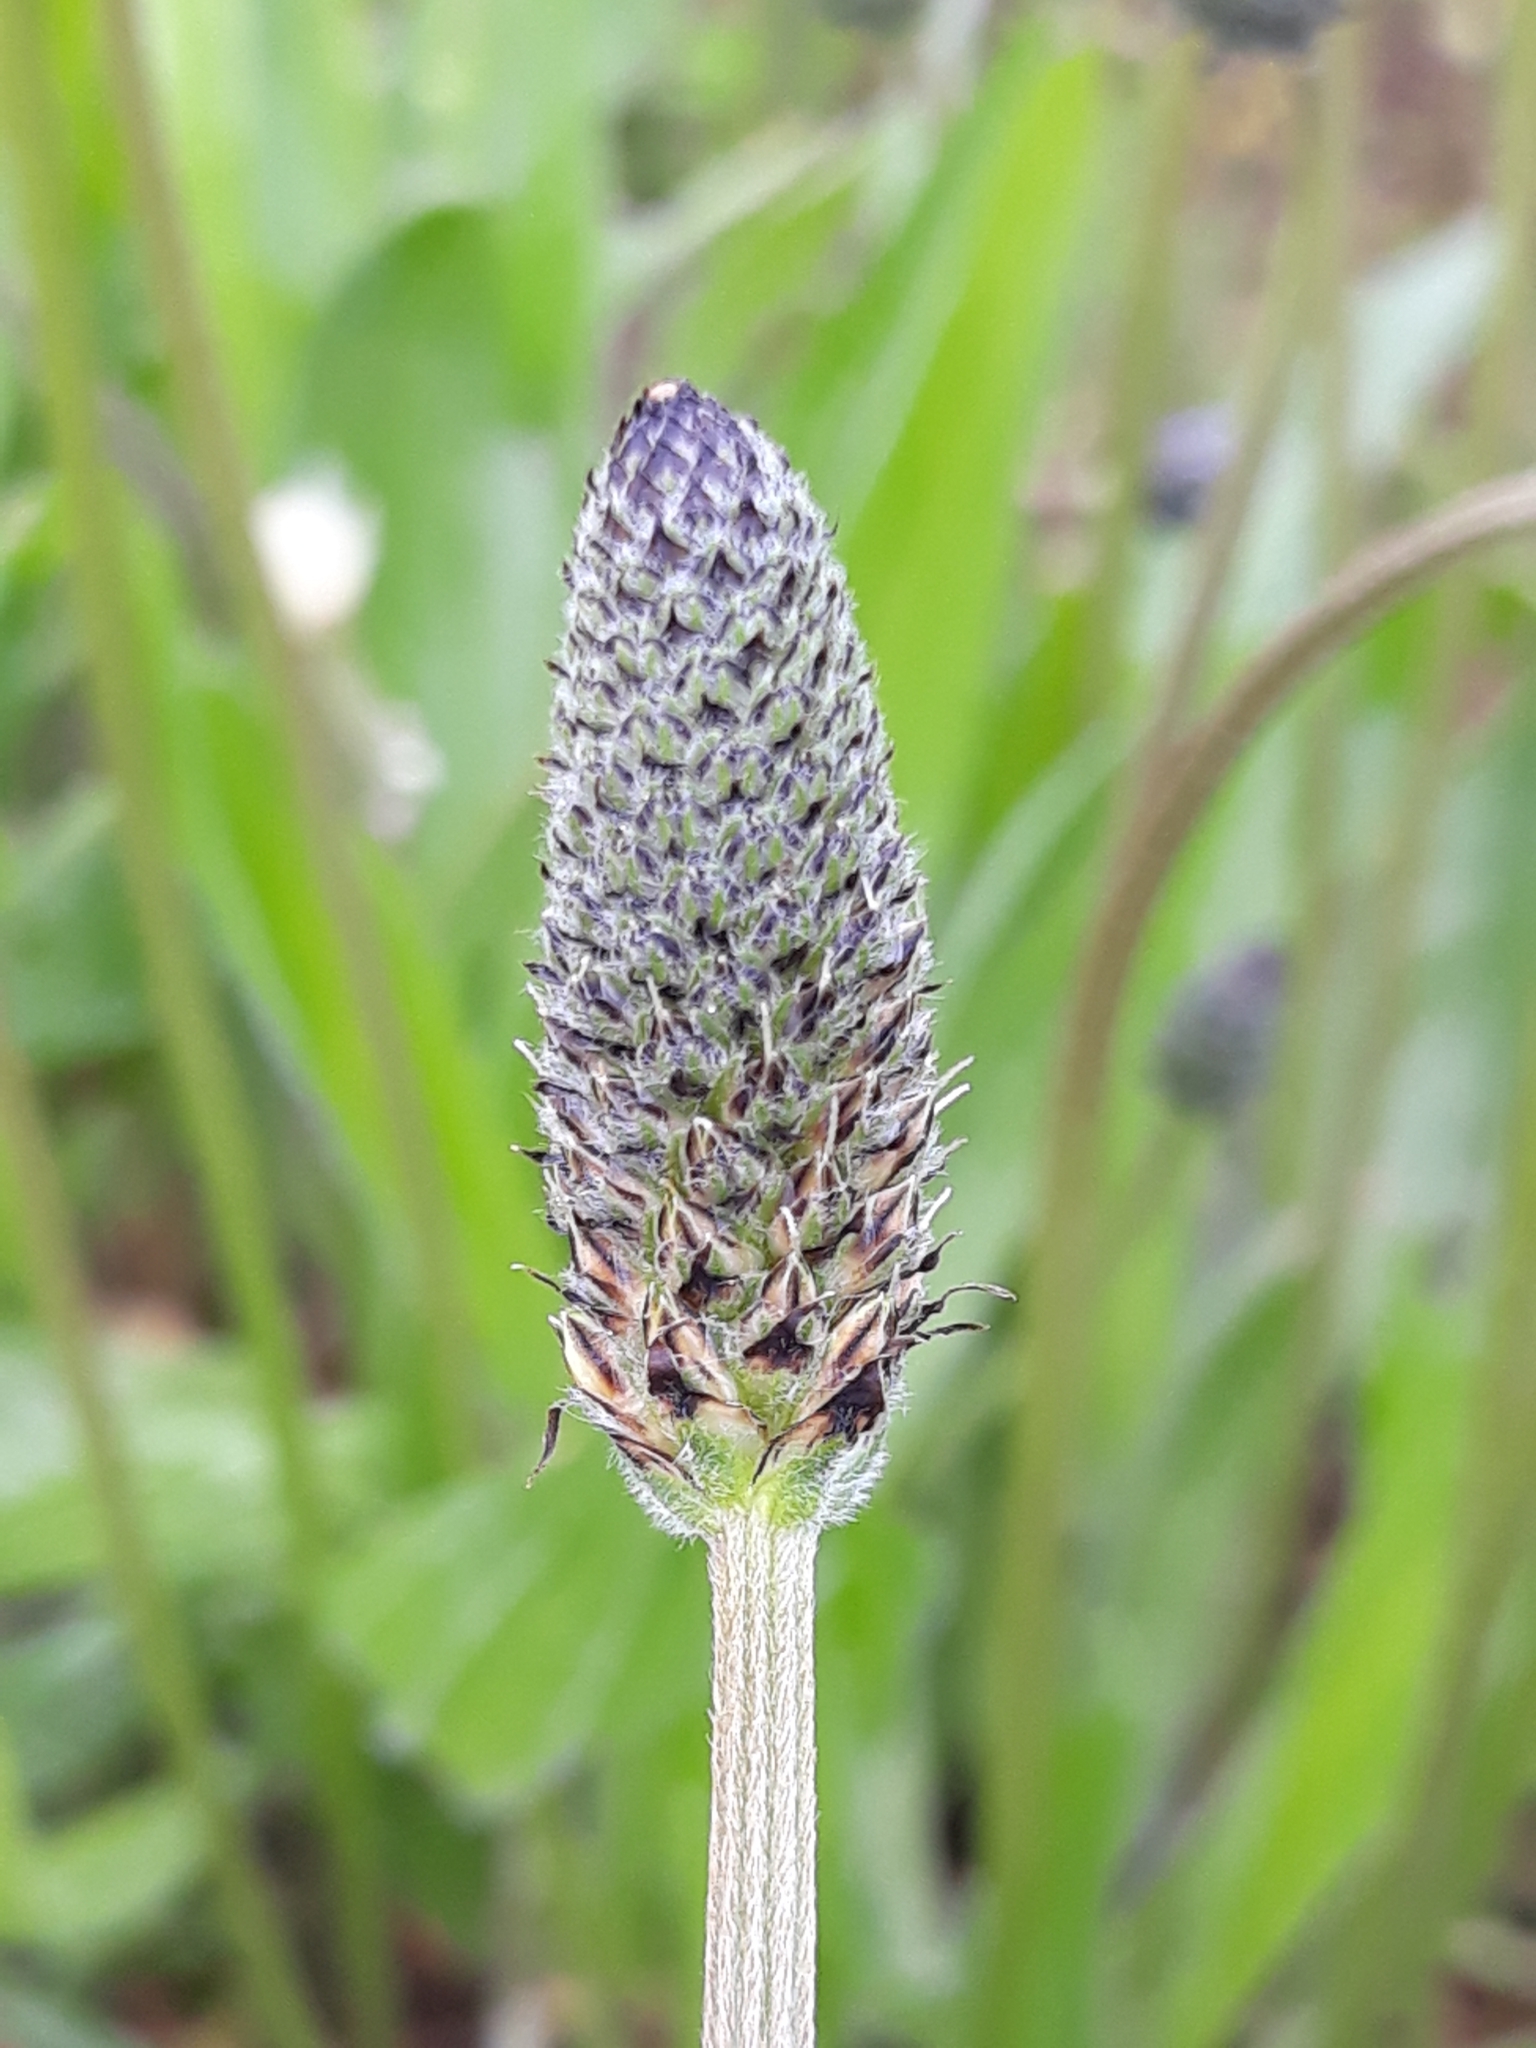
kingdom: Plantae
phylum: Tracheophyta
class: Magnoliopsida
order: Lamiales
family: Plantaginaceae
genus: Plantago
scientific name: Plantago lanceolata
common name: Ribwort plantain
